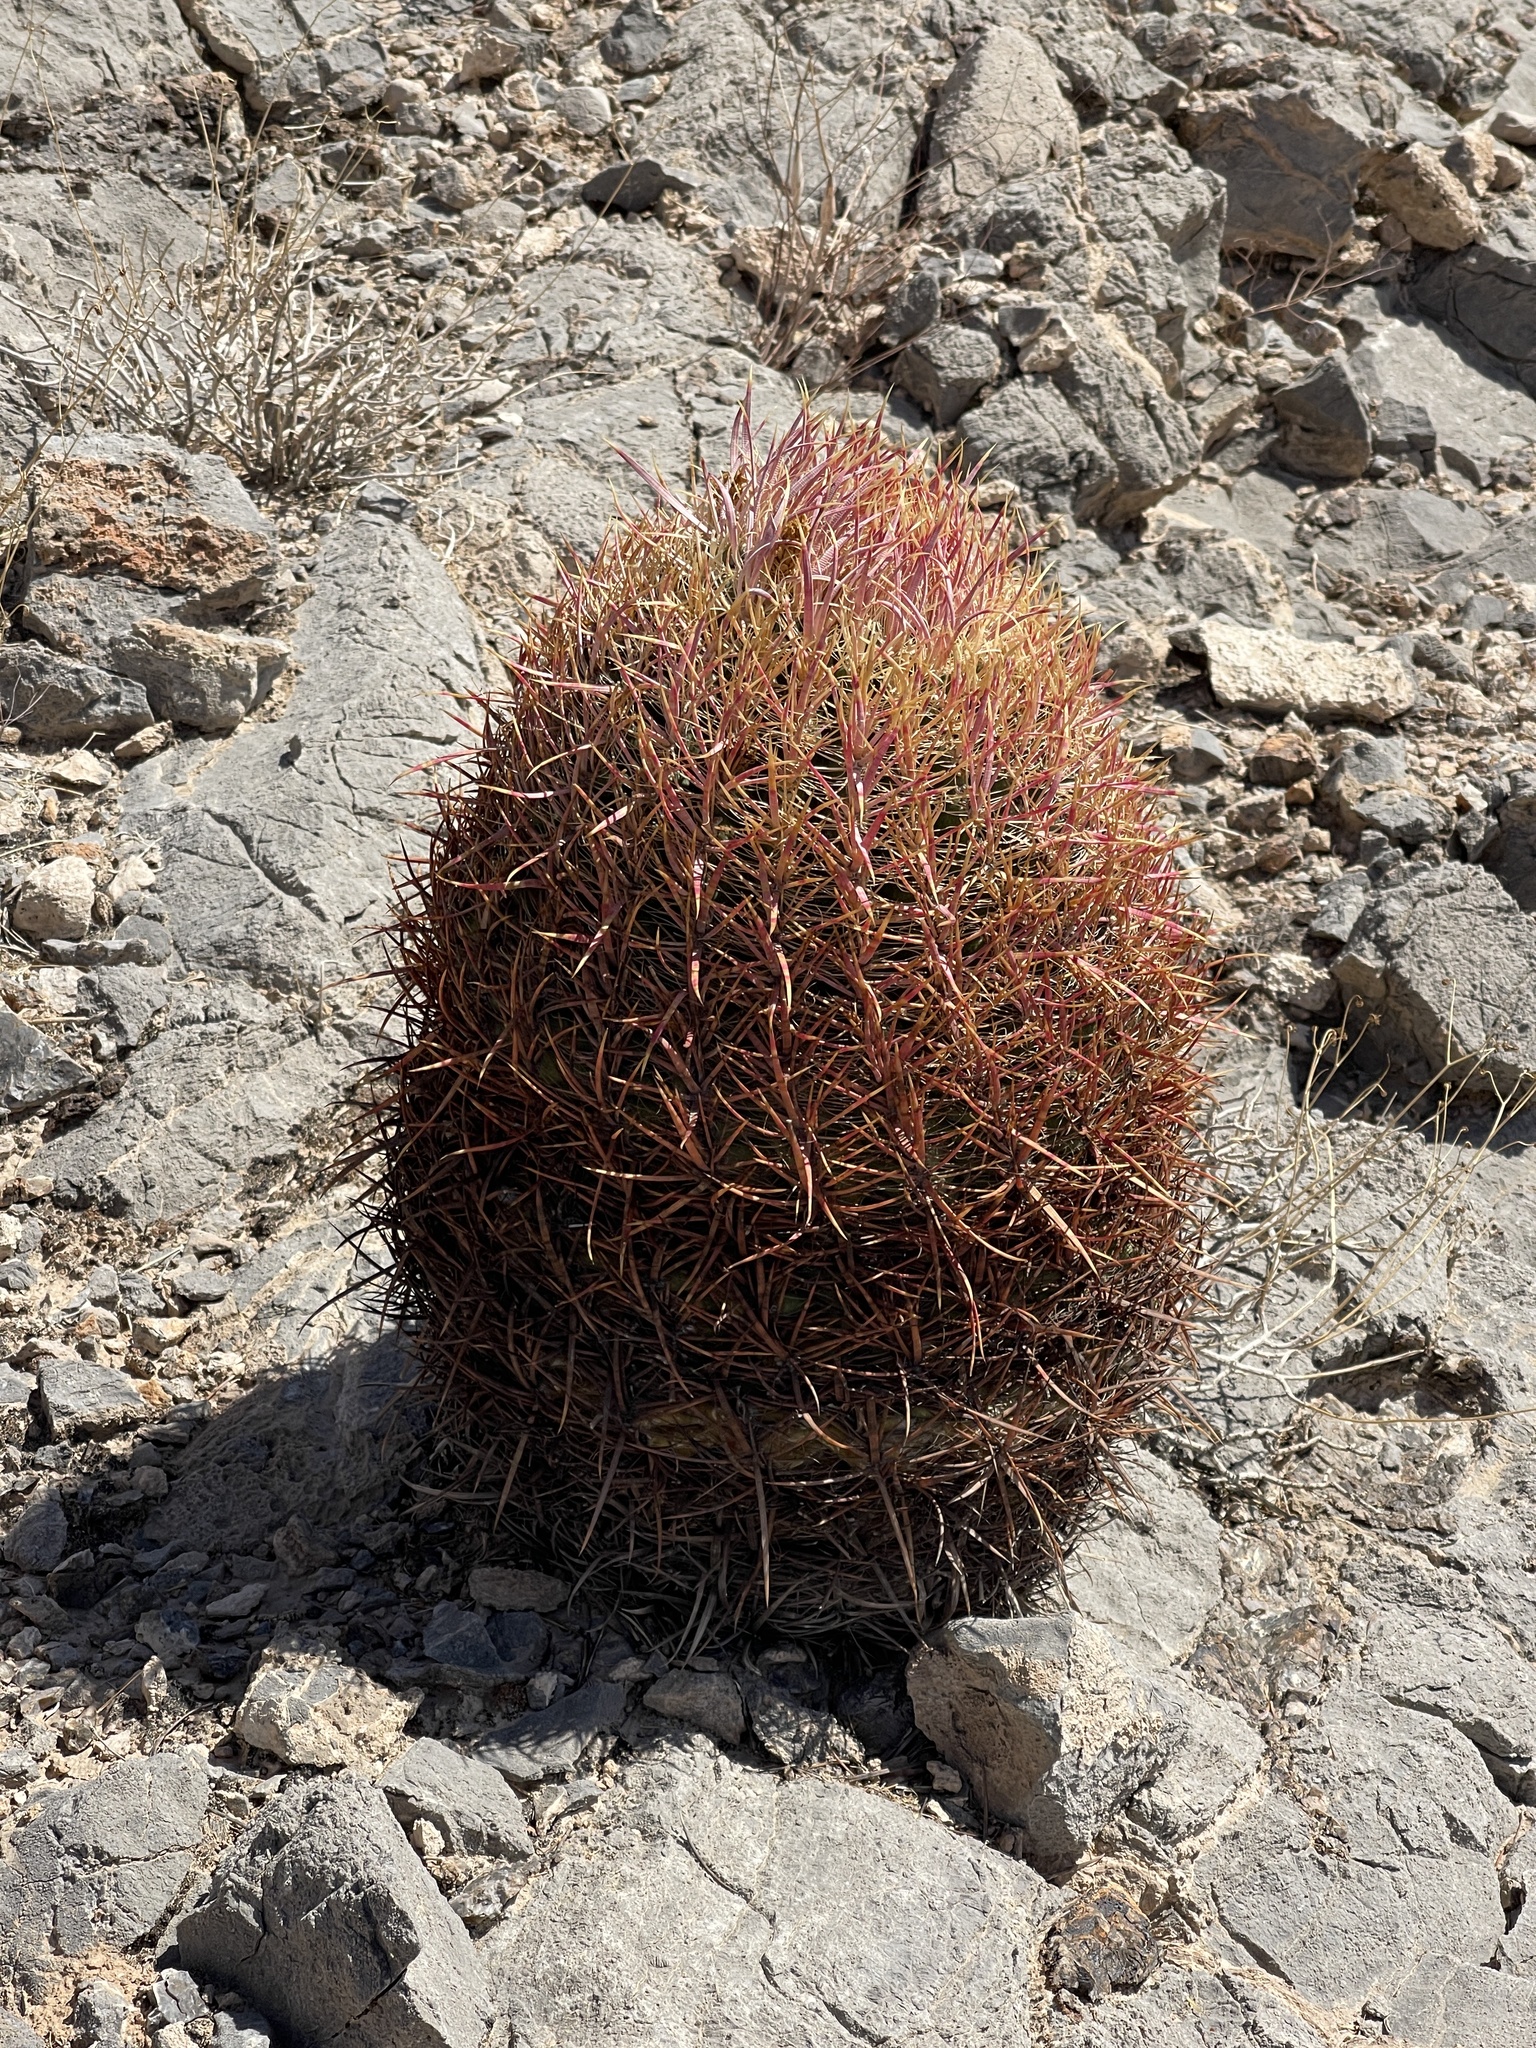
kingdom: Plantae
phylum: Tracheophyta
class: Magnoliopsida
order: Caryophyllales
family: Cactaceae
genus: Ferocactus
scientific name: Ferocactus cylindraceus
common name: California barrel cactus
